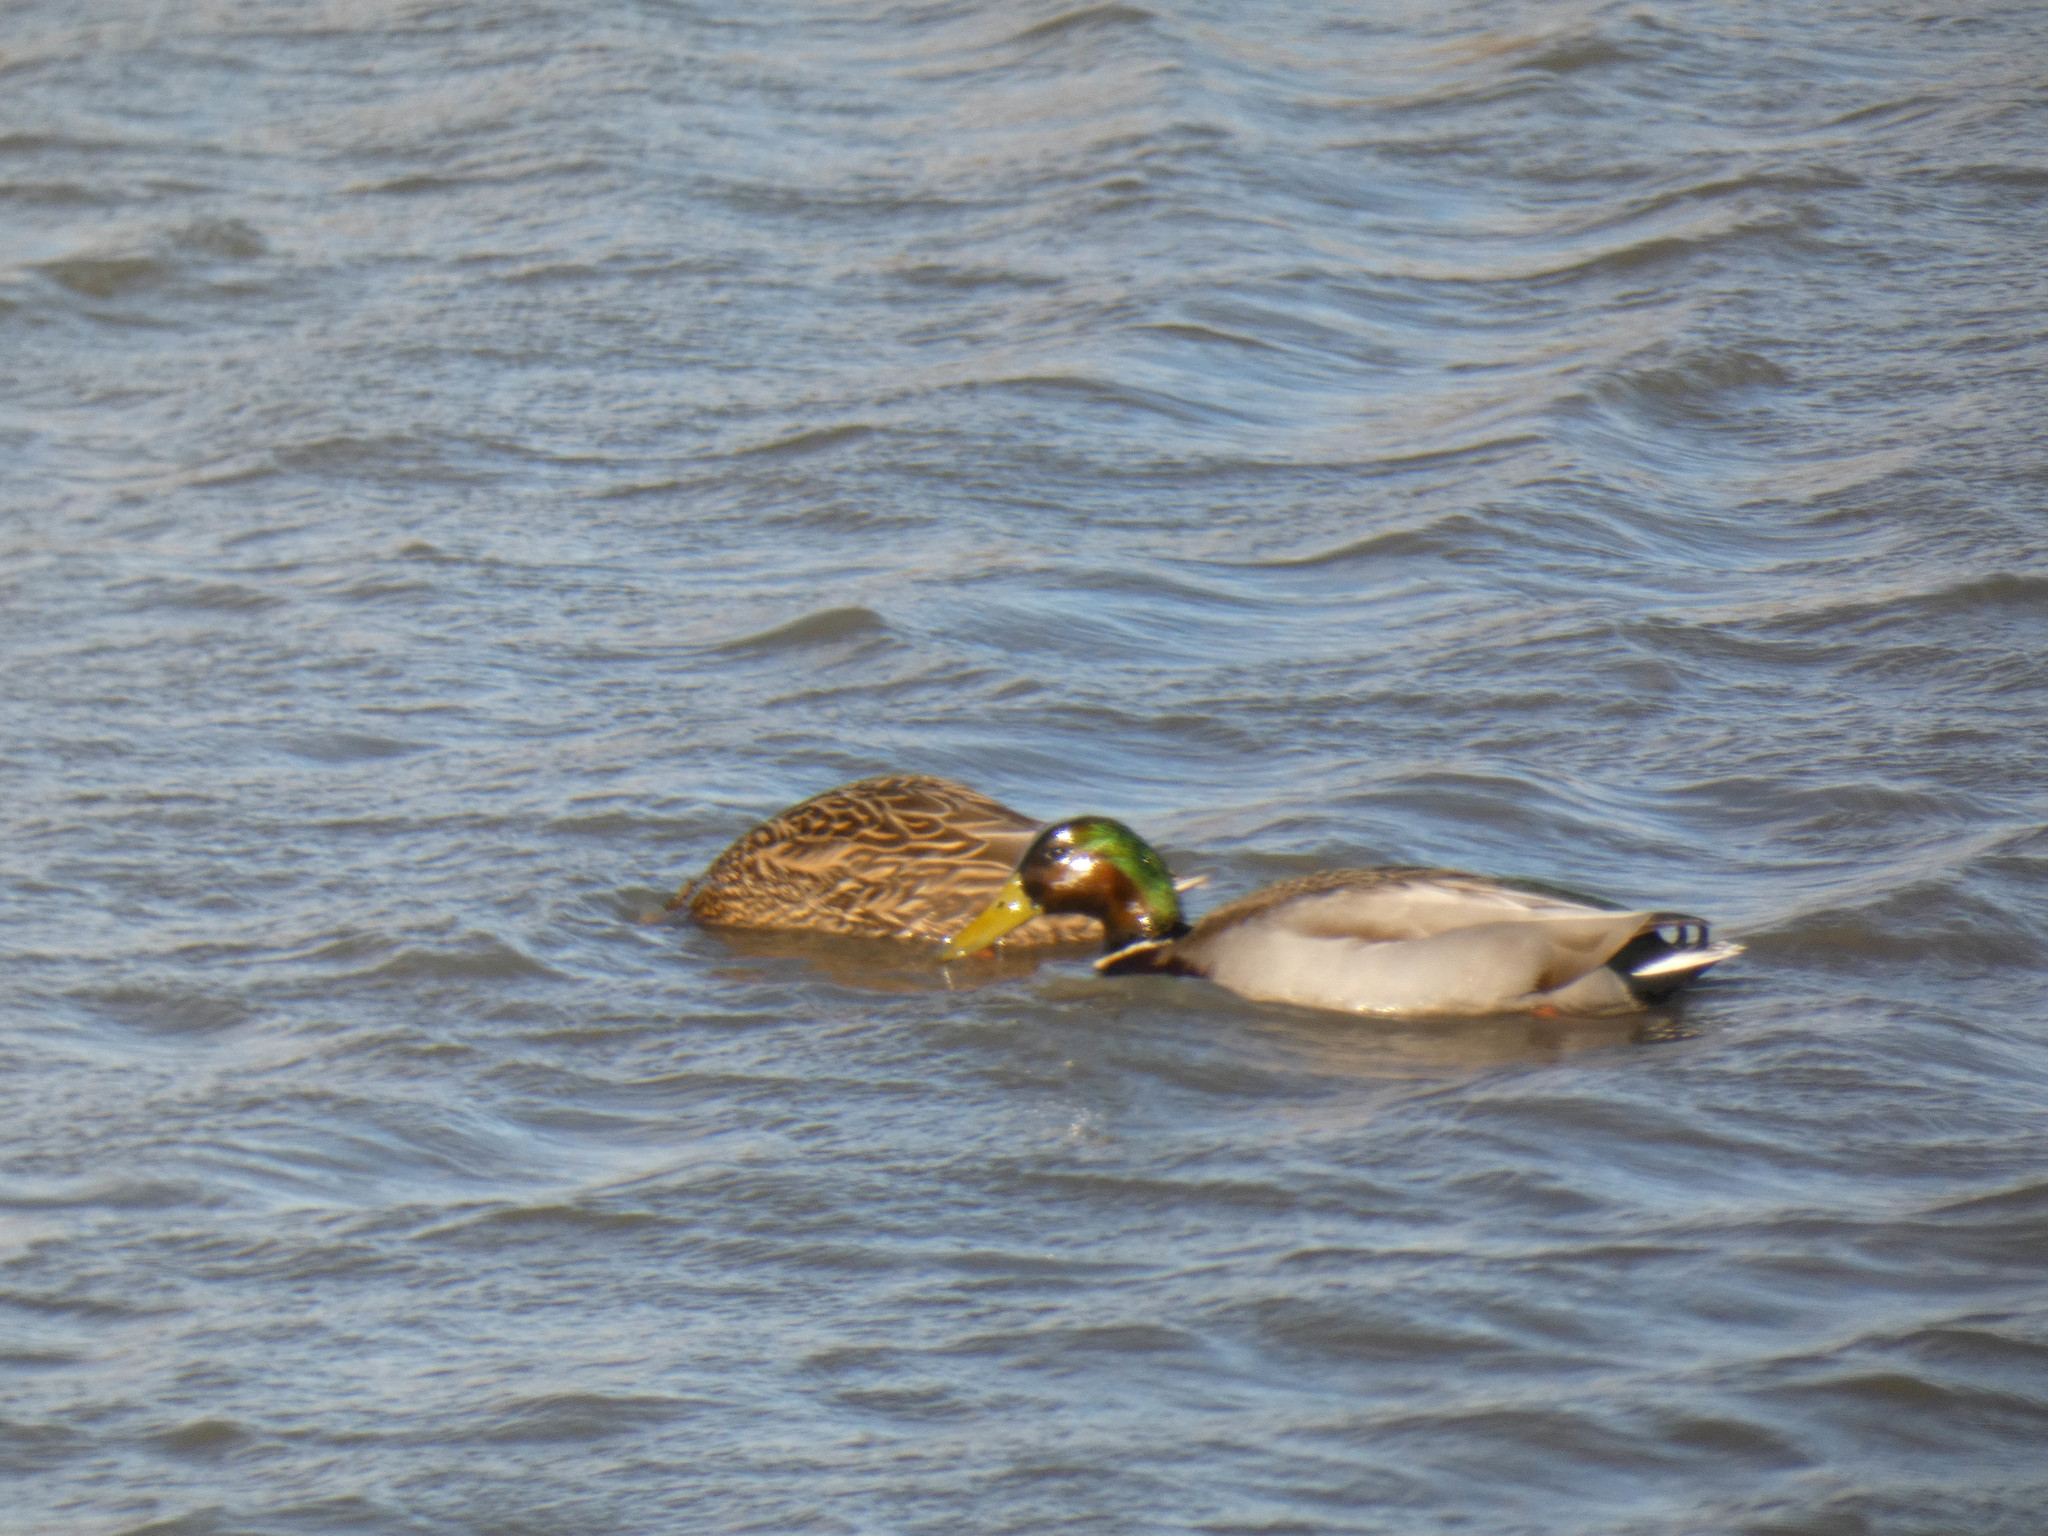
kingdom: Animalia
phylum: Chordata
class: Aves
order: Anseriformes
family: Anatidae
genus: Anas
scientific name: Anas platyrhynchos
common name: Mallard
